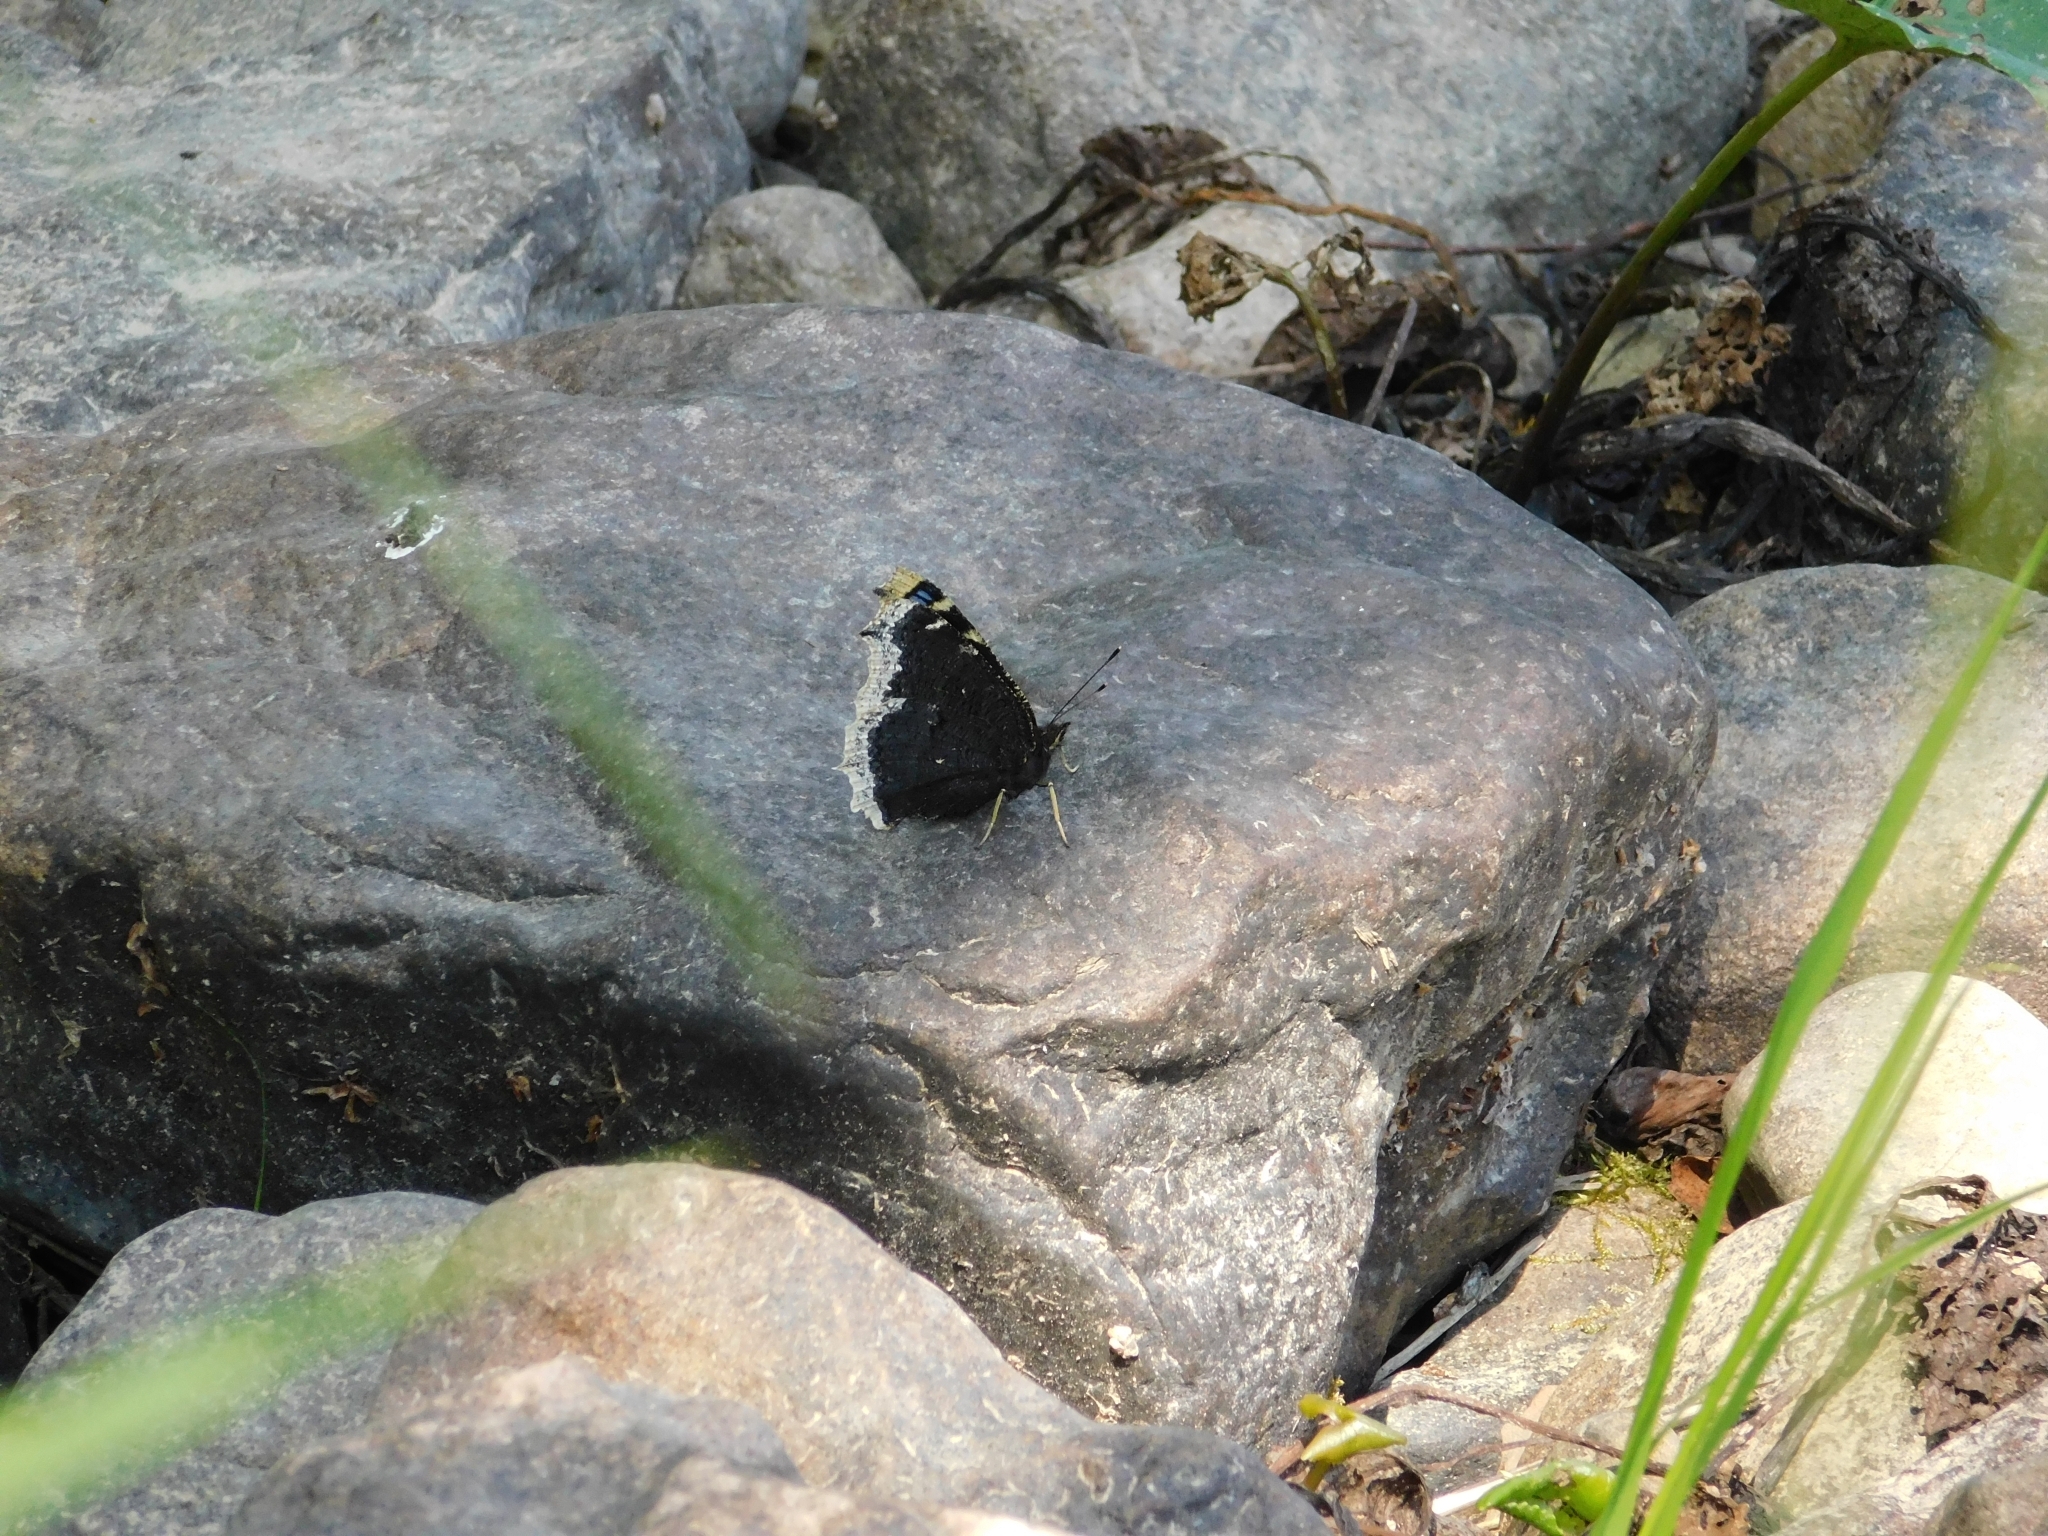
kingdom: Animalia
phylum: Arthropoda
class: Insecta
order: Lepidoptera
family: Nymphalidae
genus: Nymphalis
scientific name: Nymphalis antiopa
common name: Camberwell beauty
